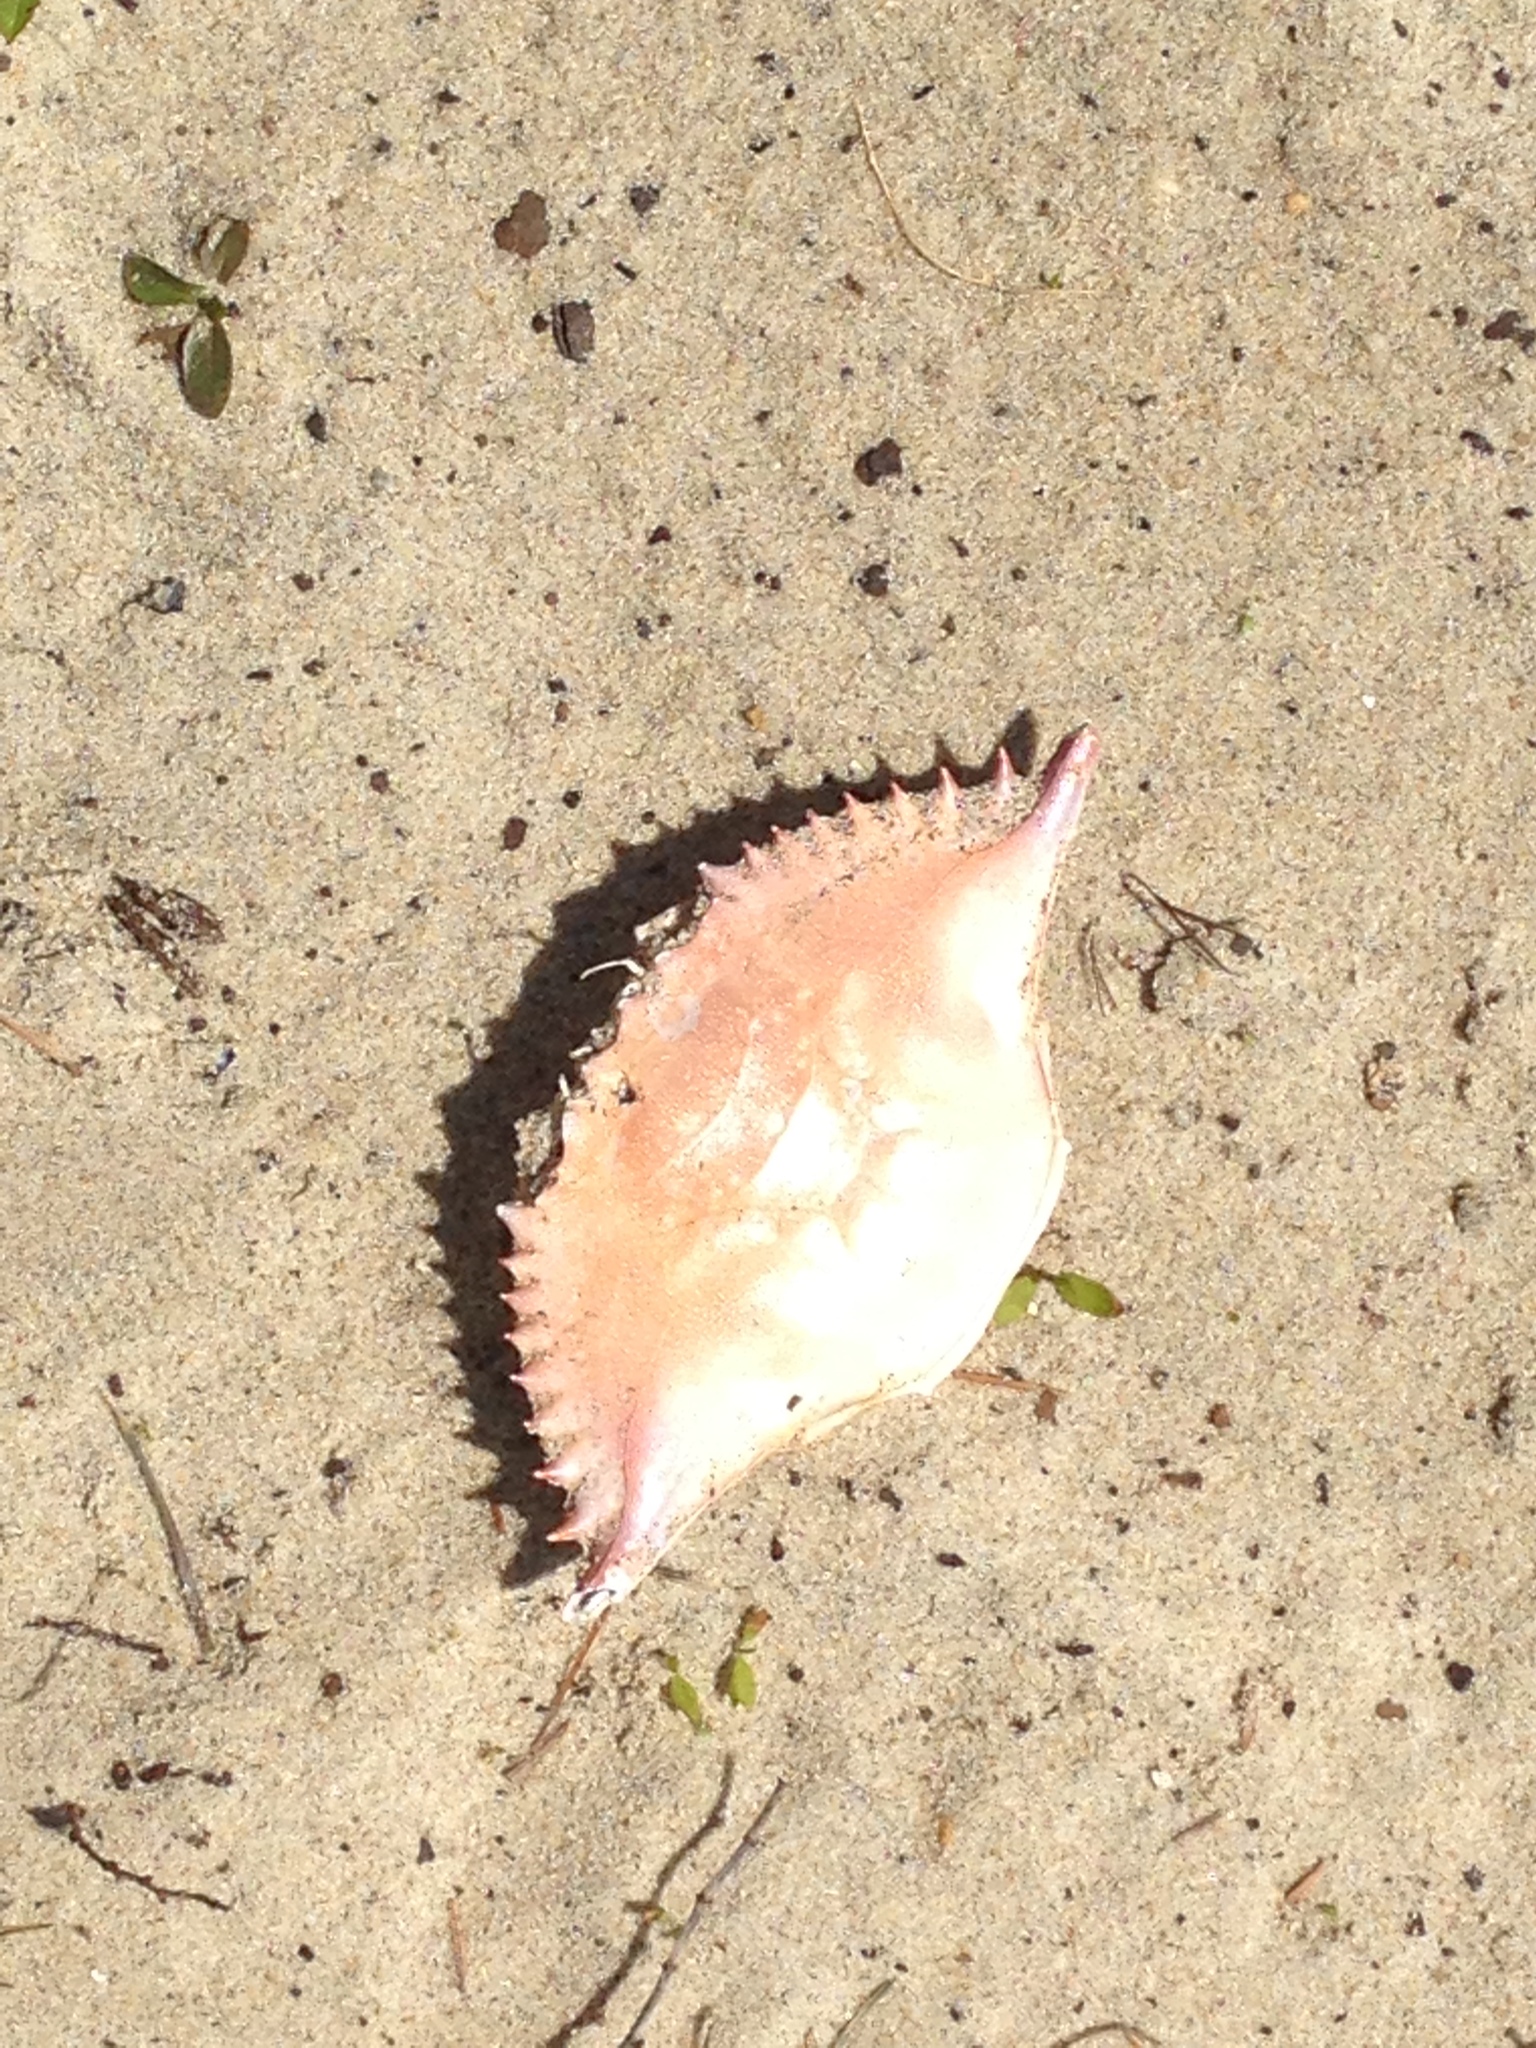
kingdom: Animalia
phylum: Arthropoda
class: Malacostraca
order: Decapoda
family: Portunidae
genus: Callinectes
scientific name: Callinectes sapidus
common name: Blue crab
